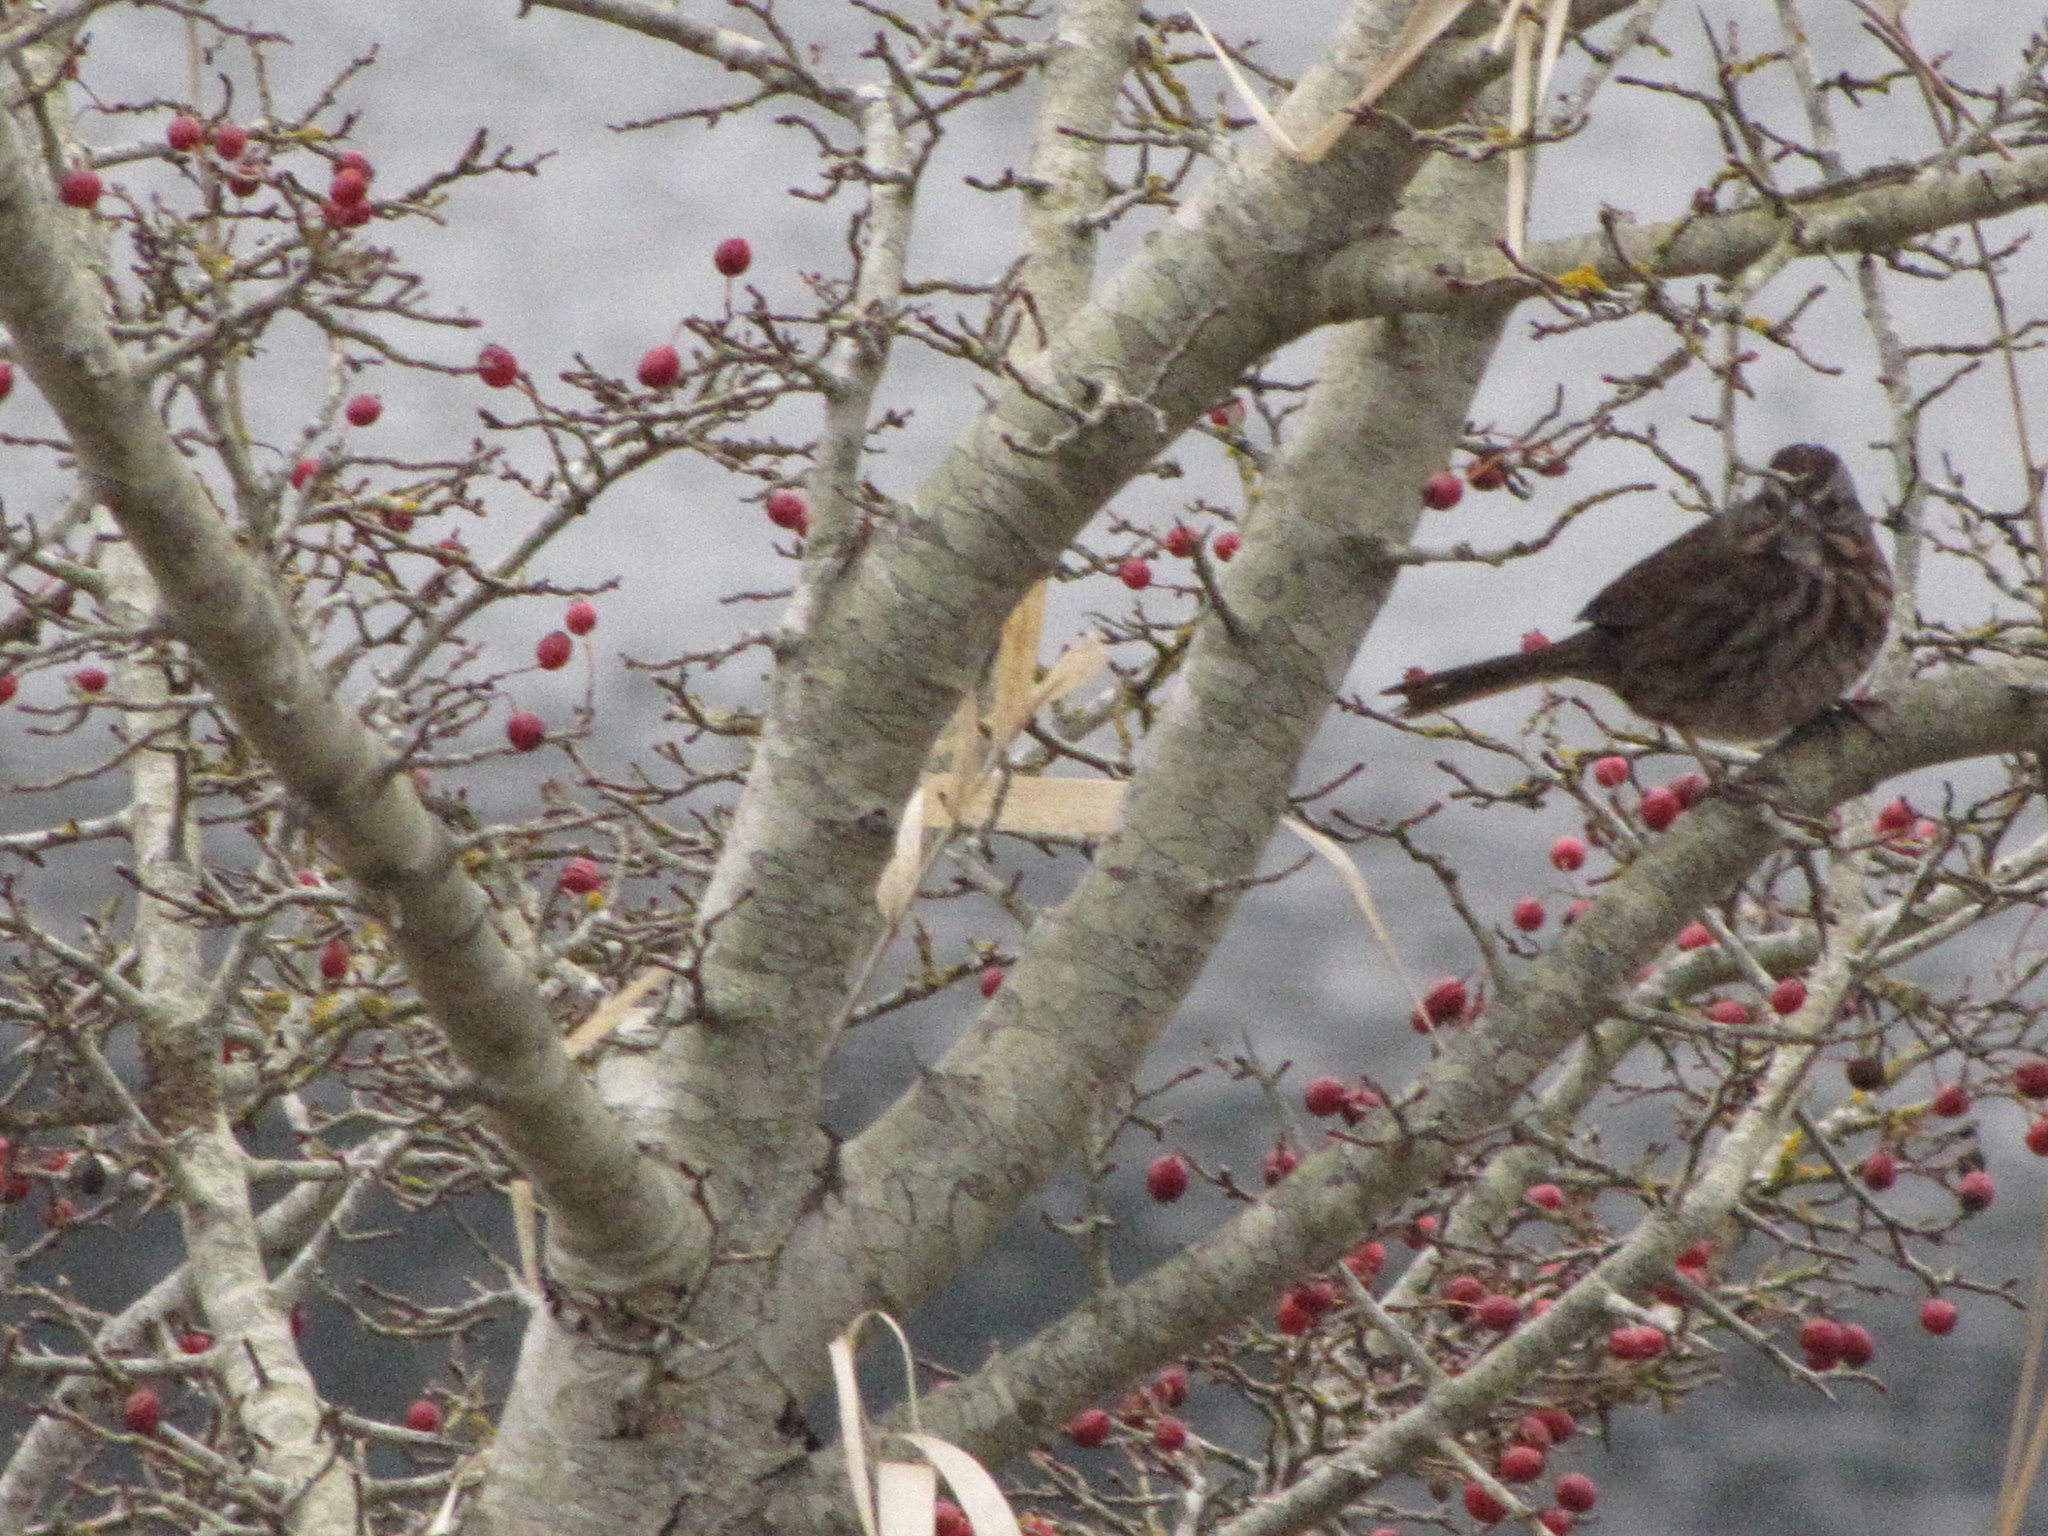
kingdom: Animalia
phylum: Chordata
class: Aves
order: Passeriformes
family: Passerellidae
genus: Melospiza
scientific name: Melospiza melodia
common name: Song sparrow
